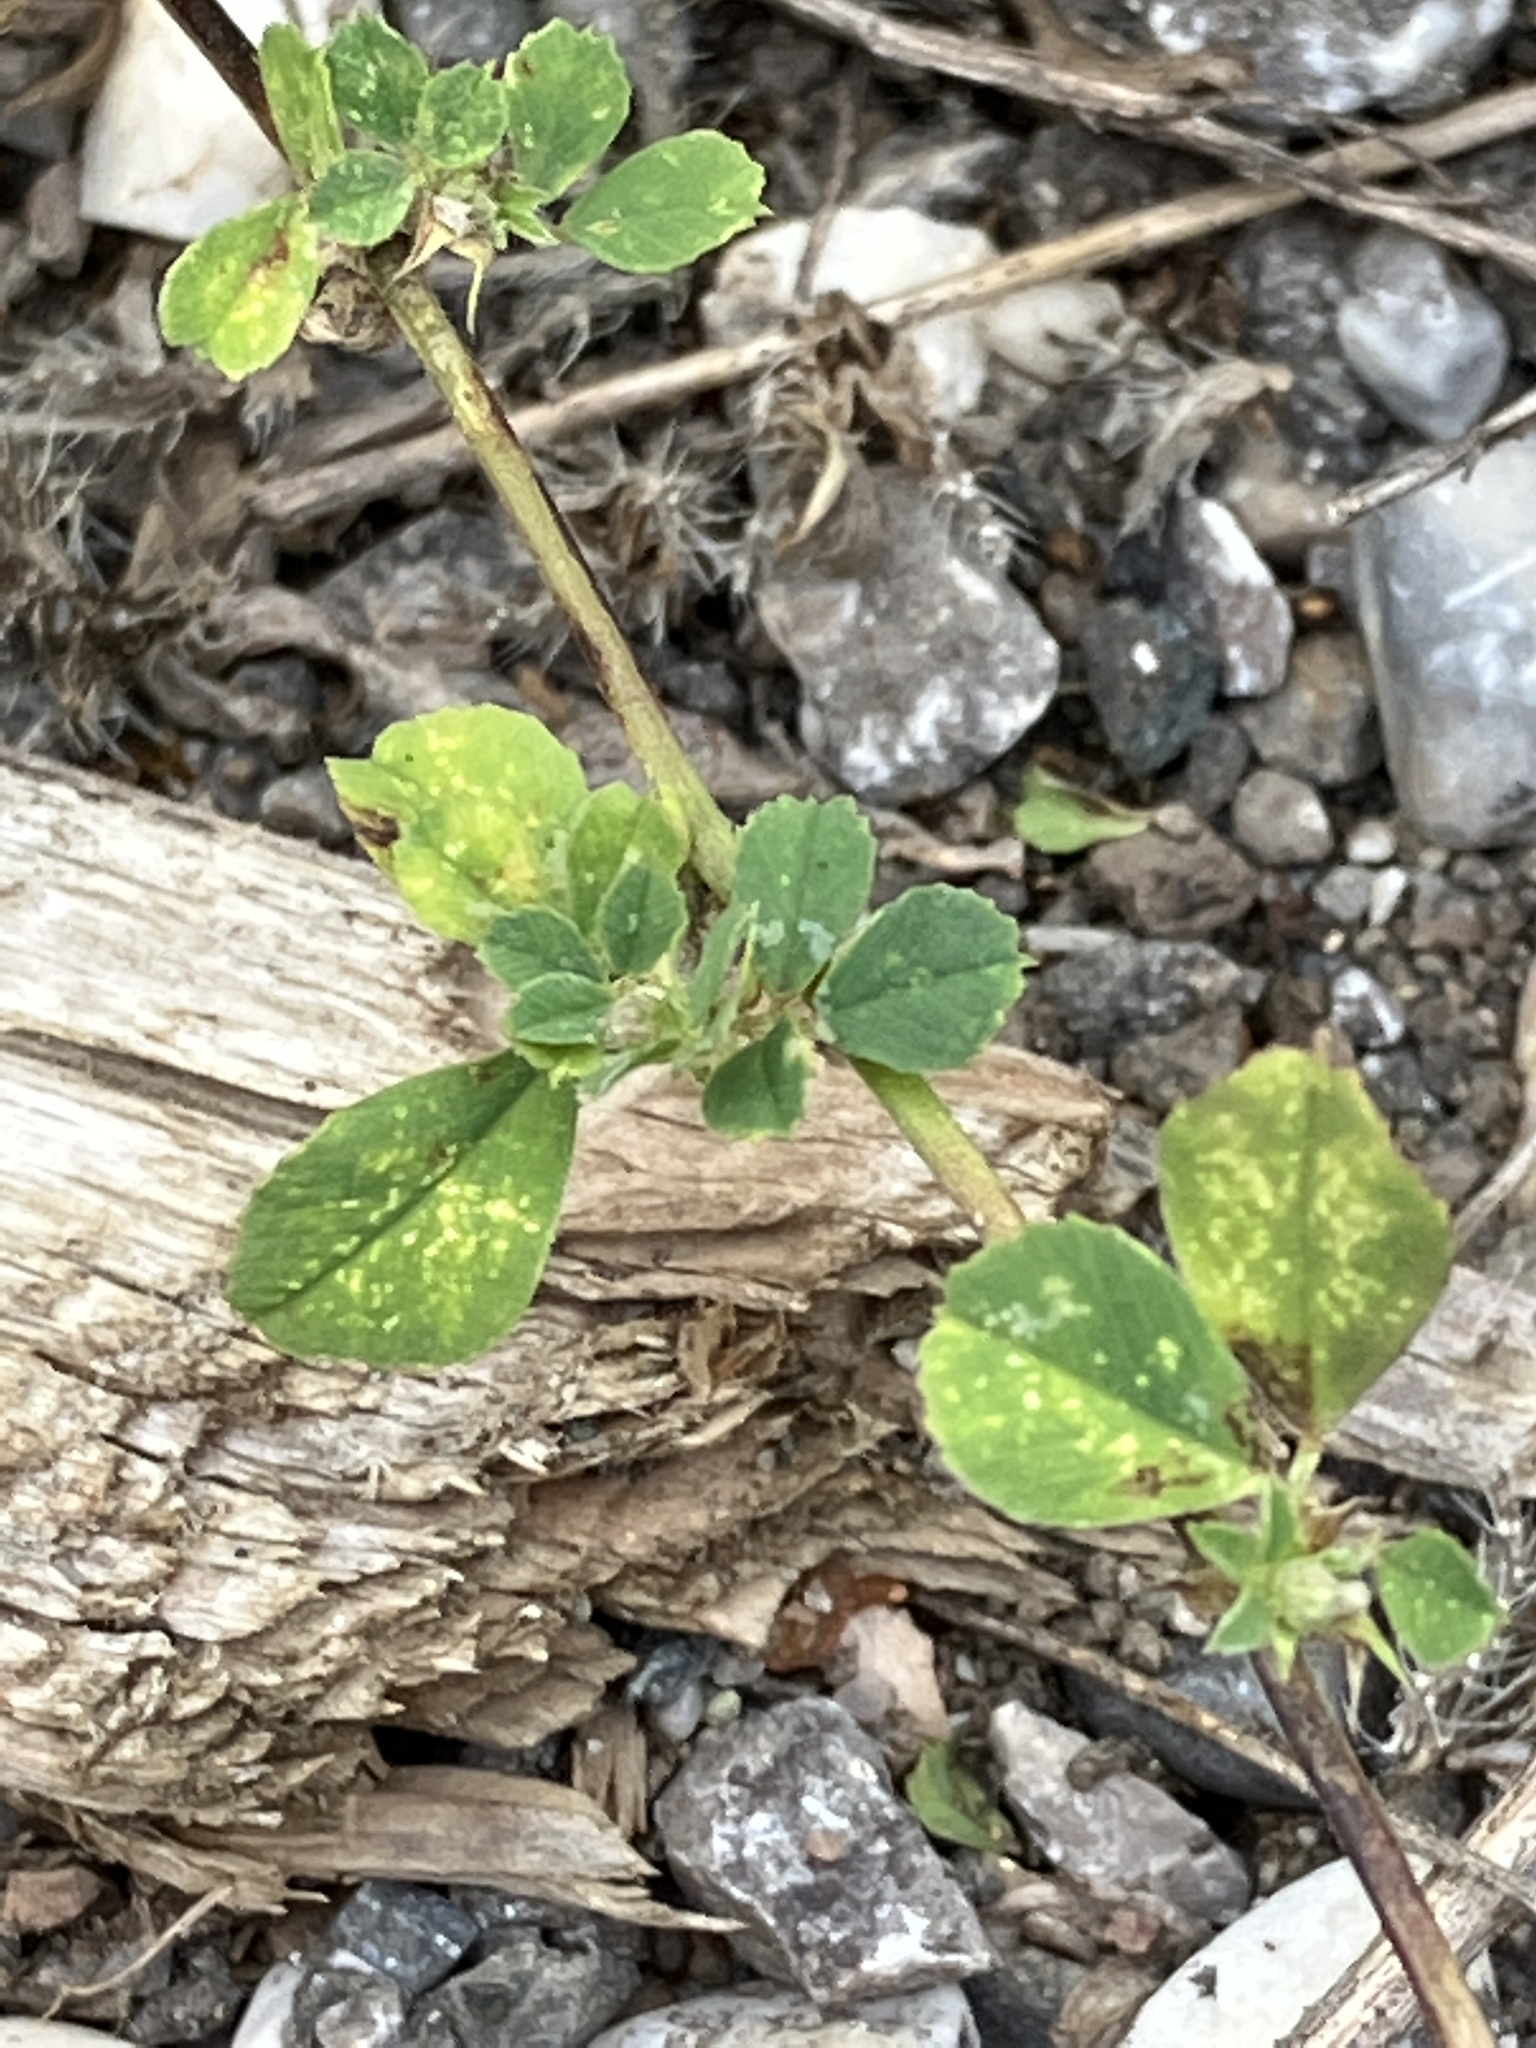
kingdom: Plantae
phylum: Tracheophyta
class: Magnoliopsida
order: Fabales
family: Fabaceae
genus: Medicago
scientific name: Medicago lupulina
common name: Black medick
